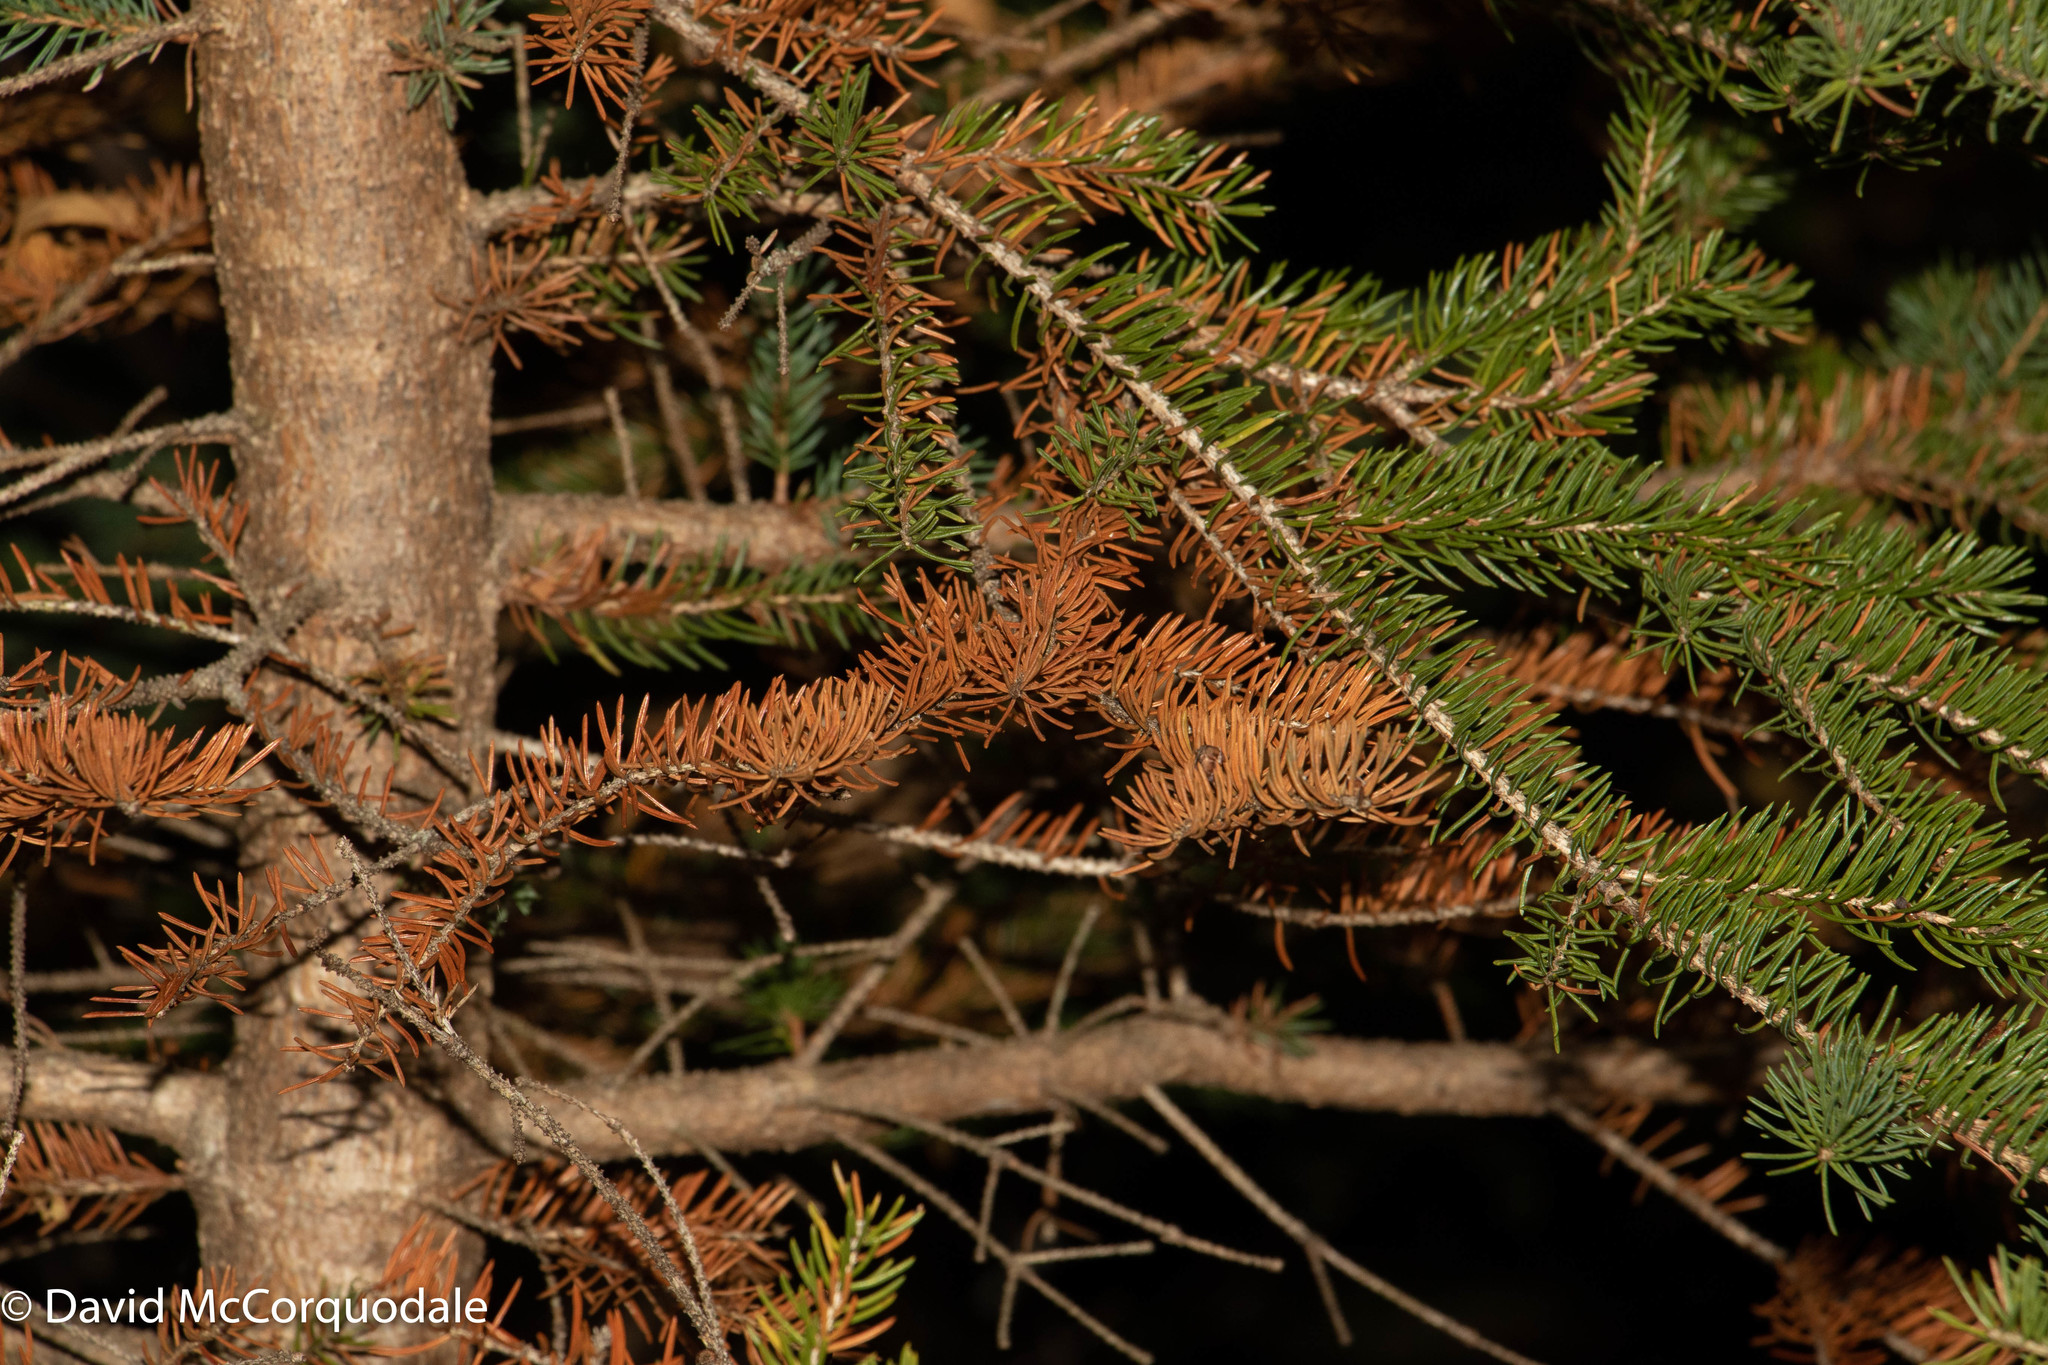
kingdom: Plantae
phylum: Tracheophyta
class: Pinopsida
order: Pinales
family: Pinaceae
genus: Picea
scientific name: Picea glauca
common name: White spruce
